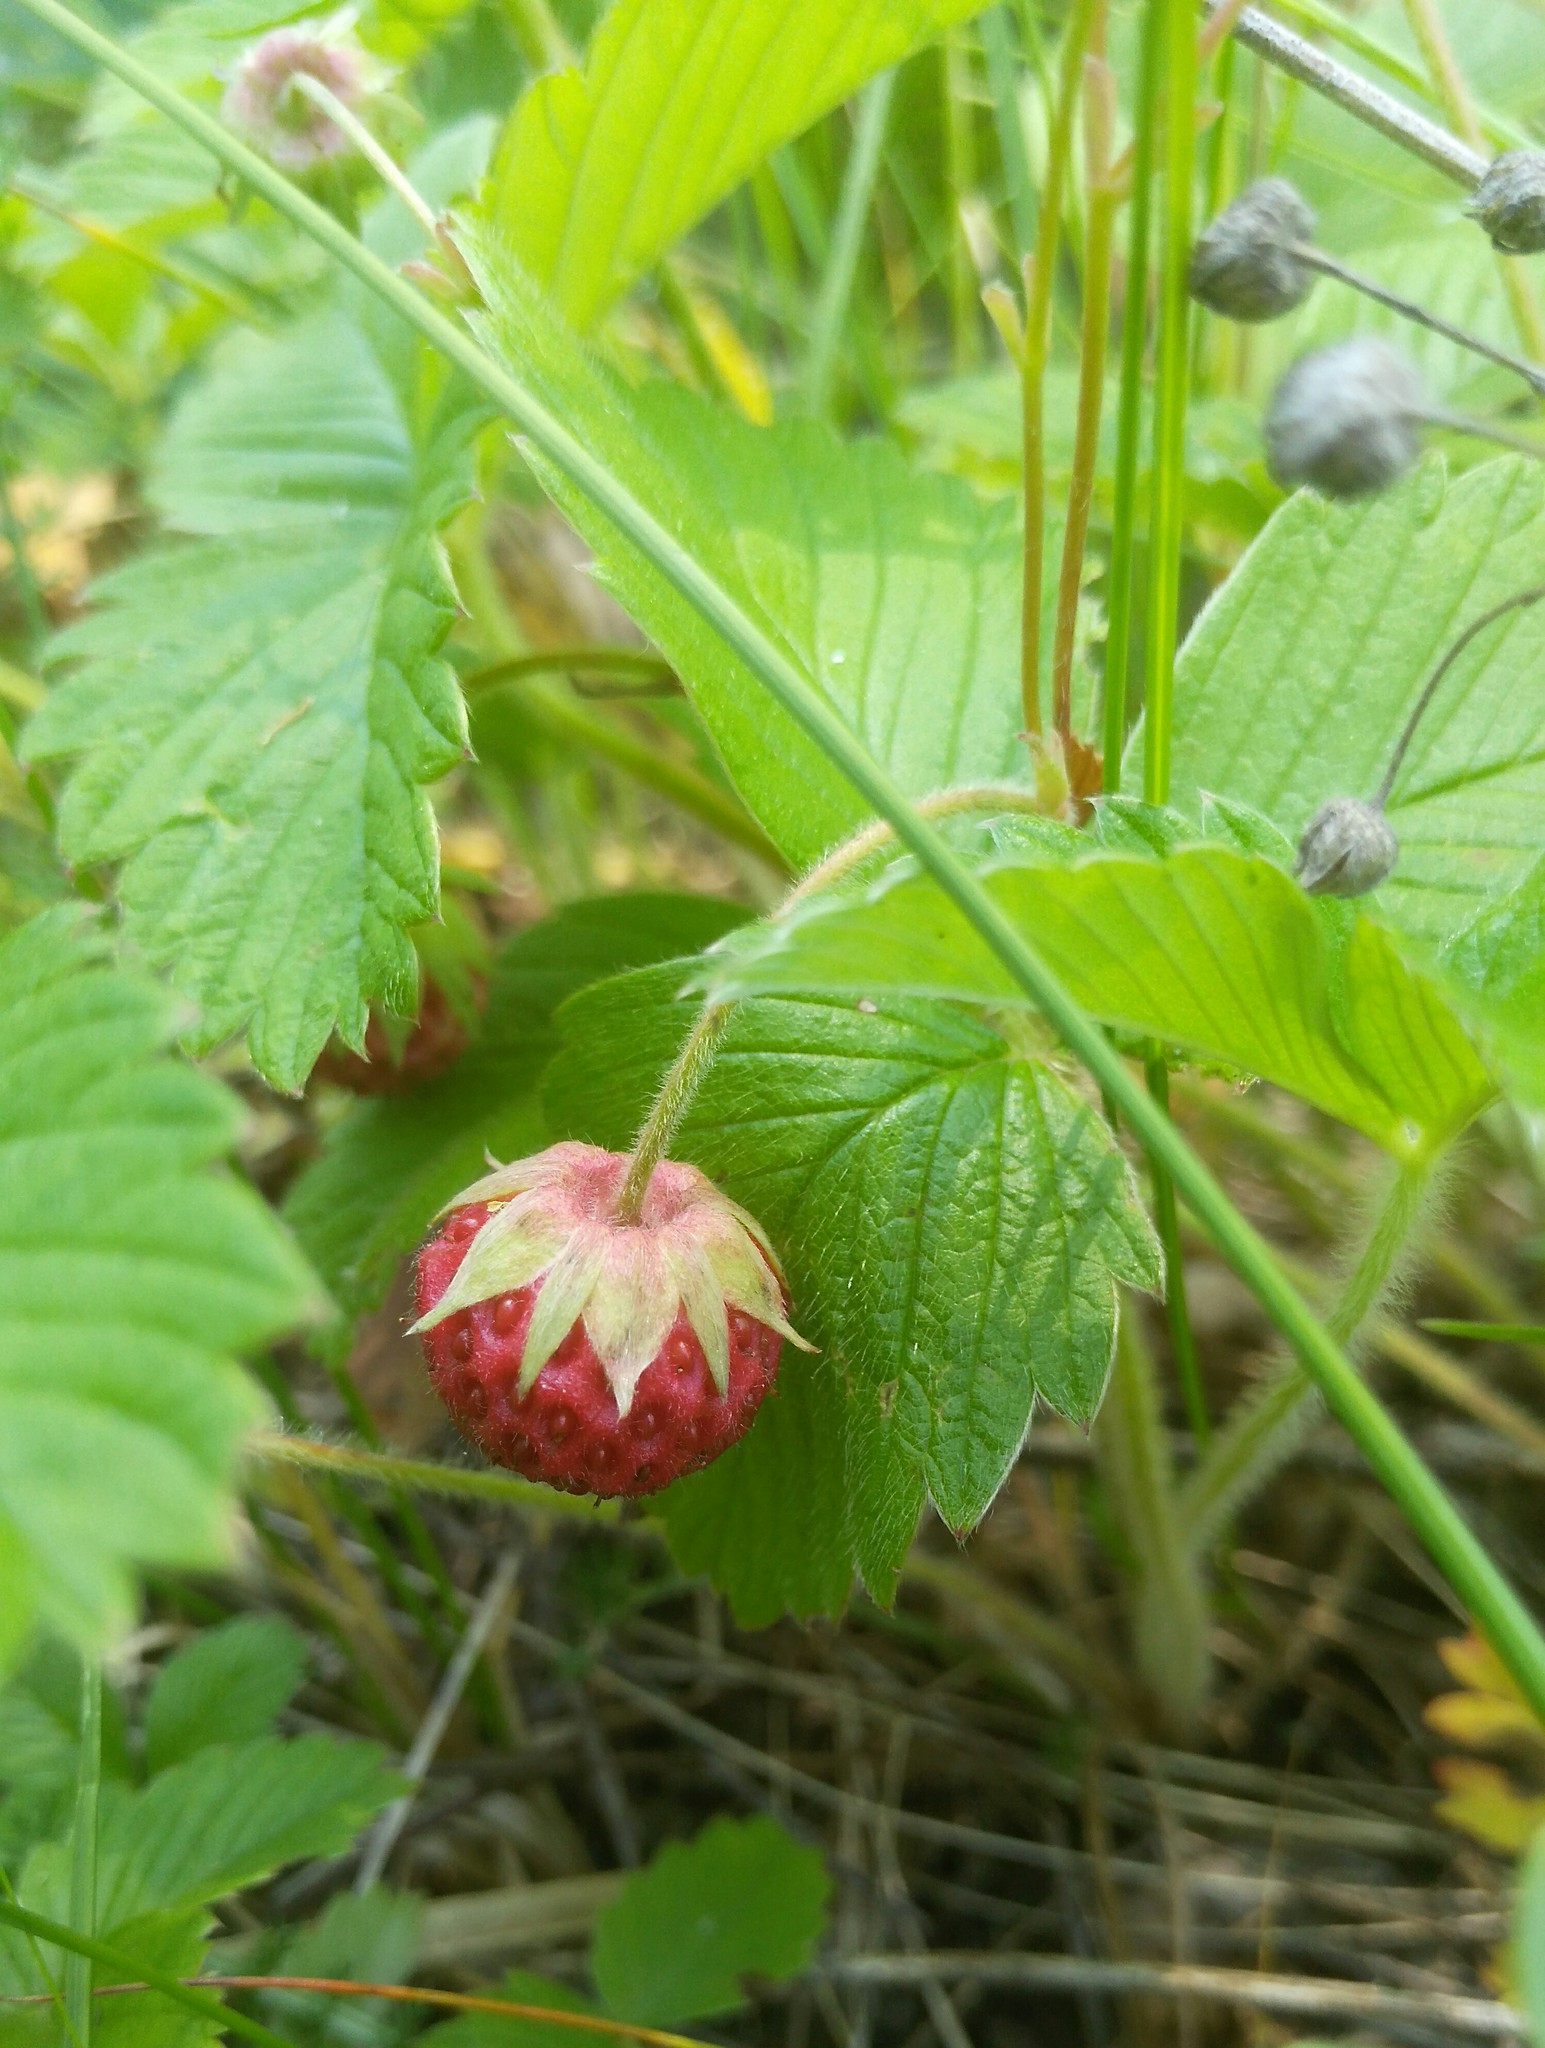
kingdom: Plantae
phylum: Tracheophyta
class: Magnoliopsida
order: Rosales
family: Rosaceae
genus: Fragaria
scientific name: Fragaria viridis
